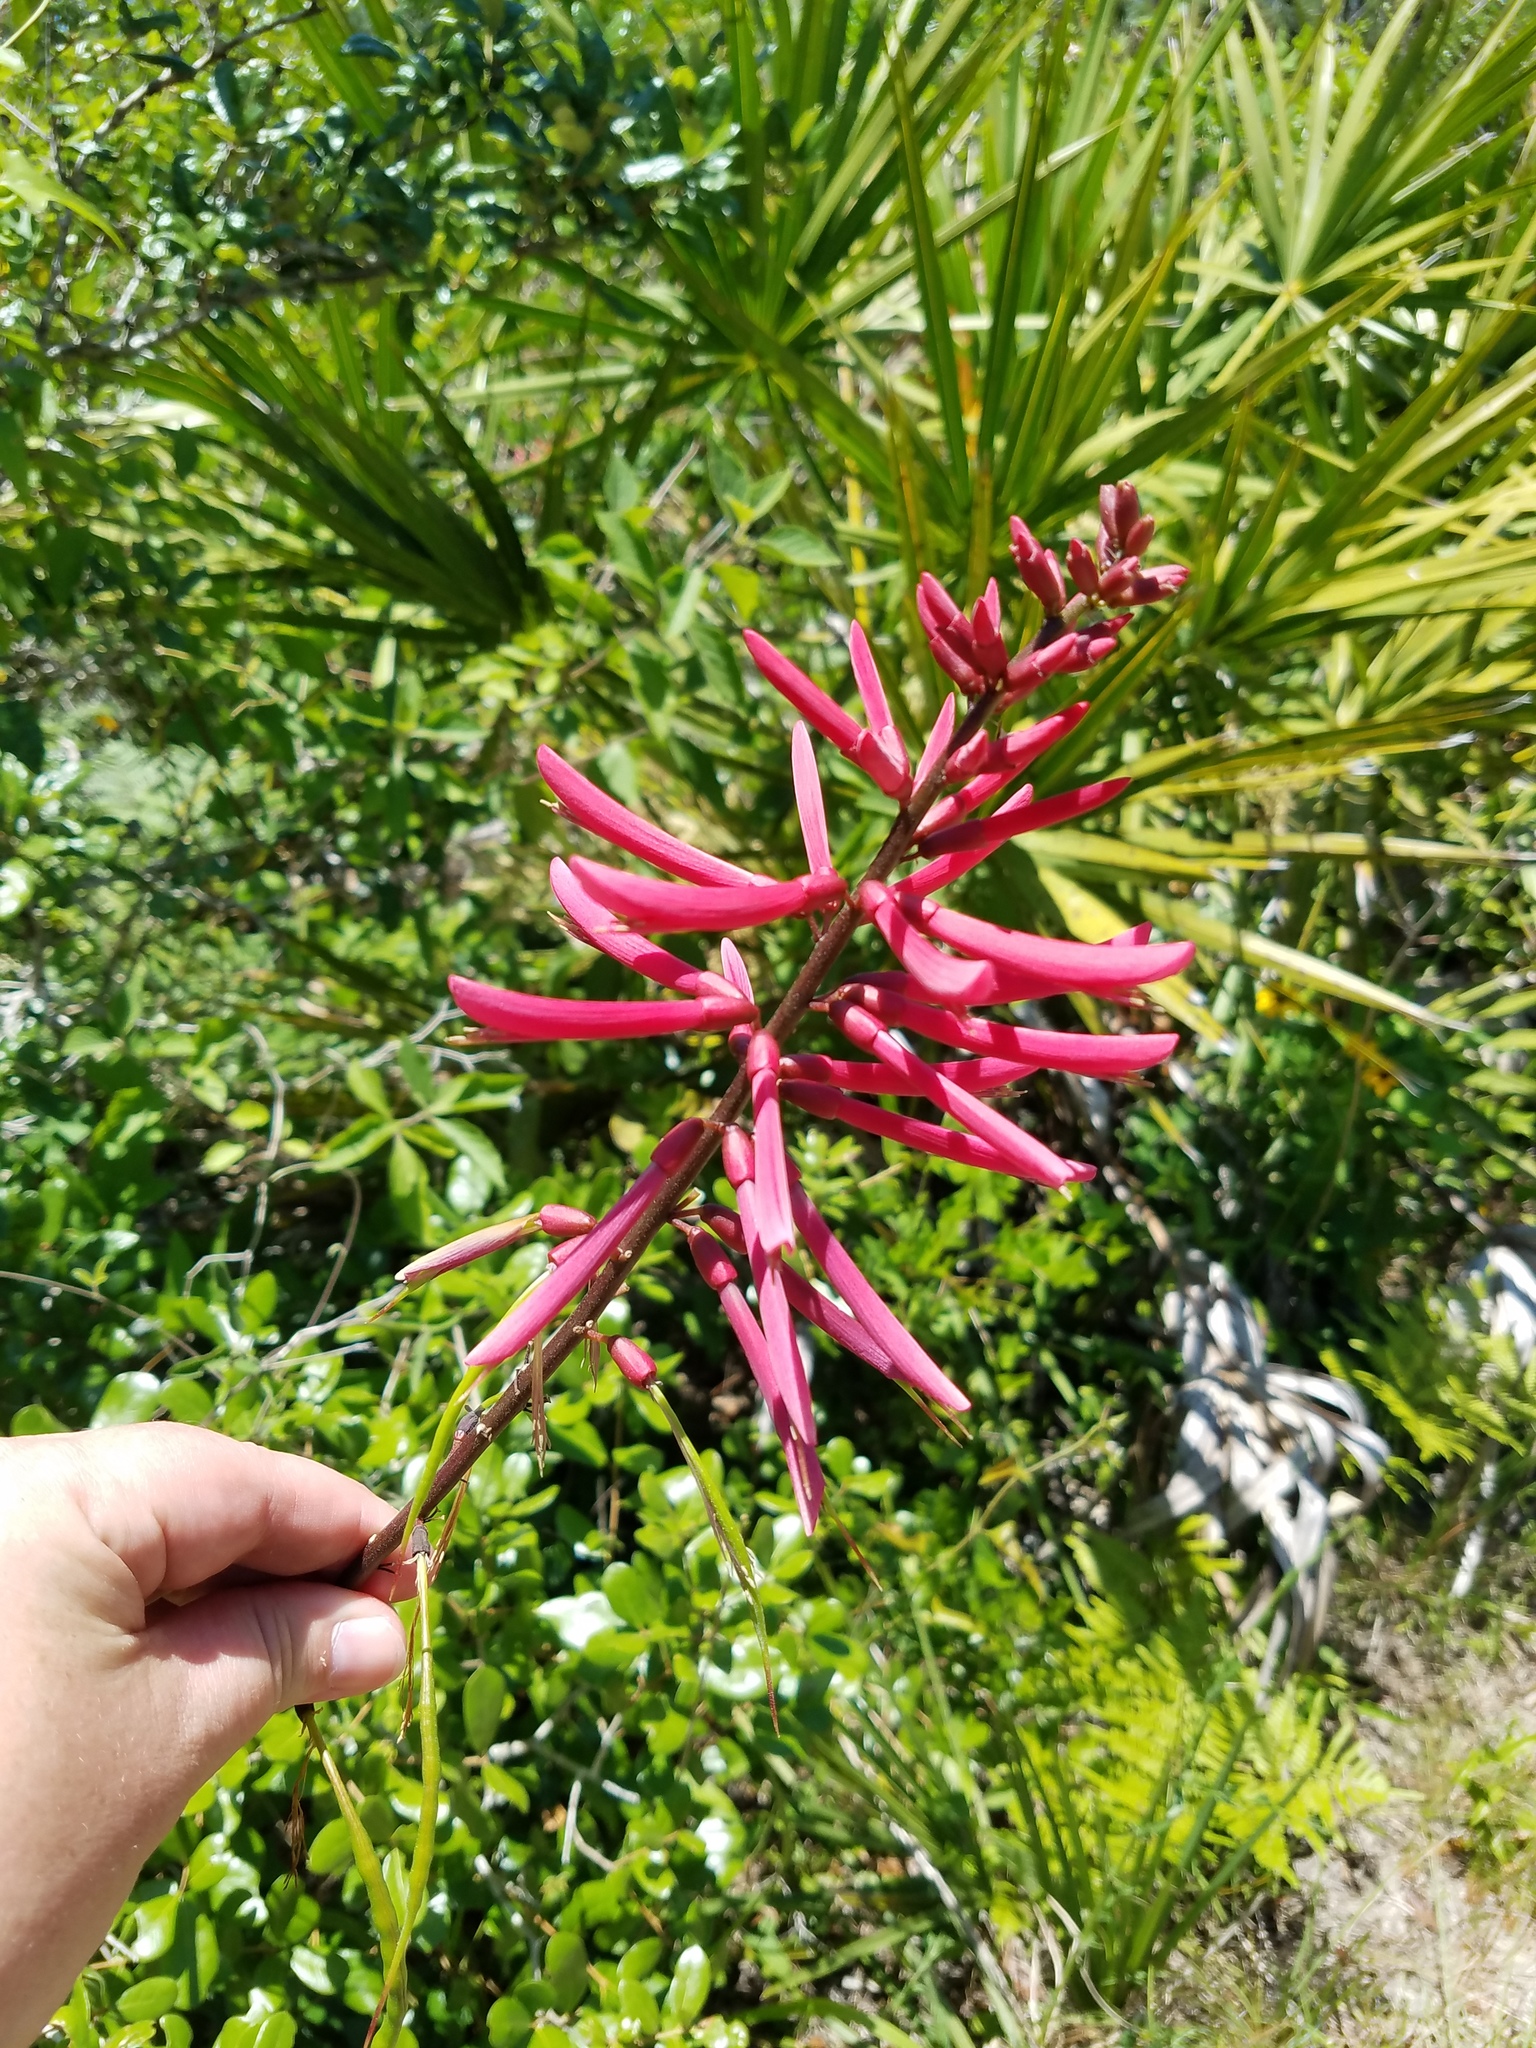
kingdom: Plantae
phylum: Tracheophyta
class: Magnoliopsida
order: Fabales
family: Fabaceae
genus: Erythrina
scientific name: Erythrina herbacea
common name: Coral-bean
